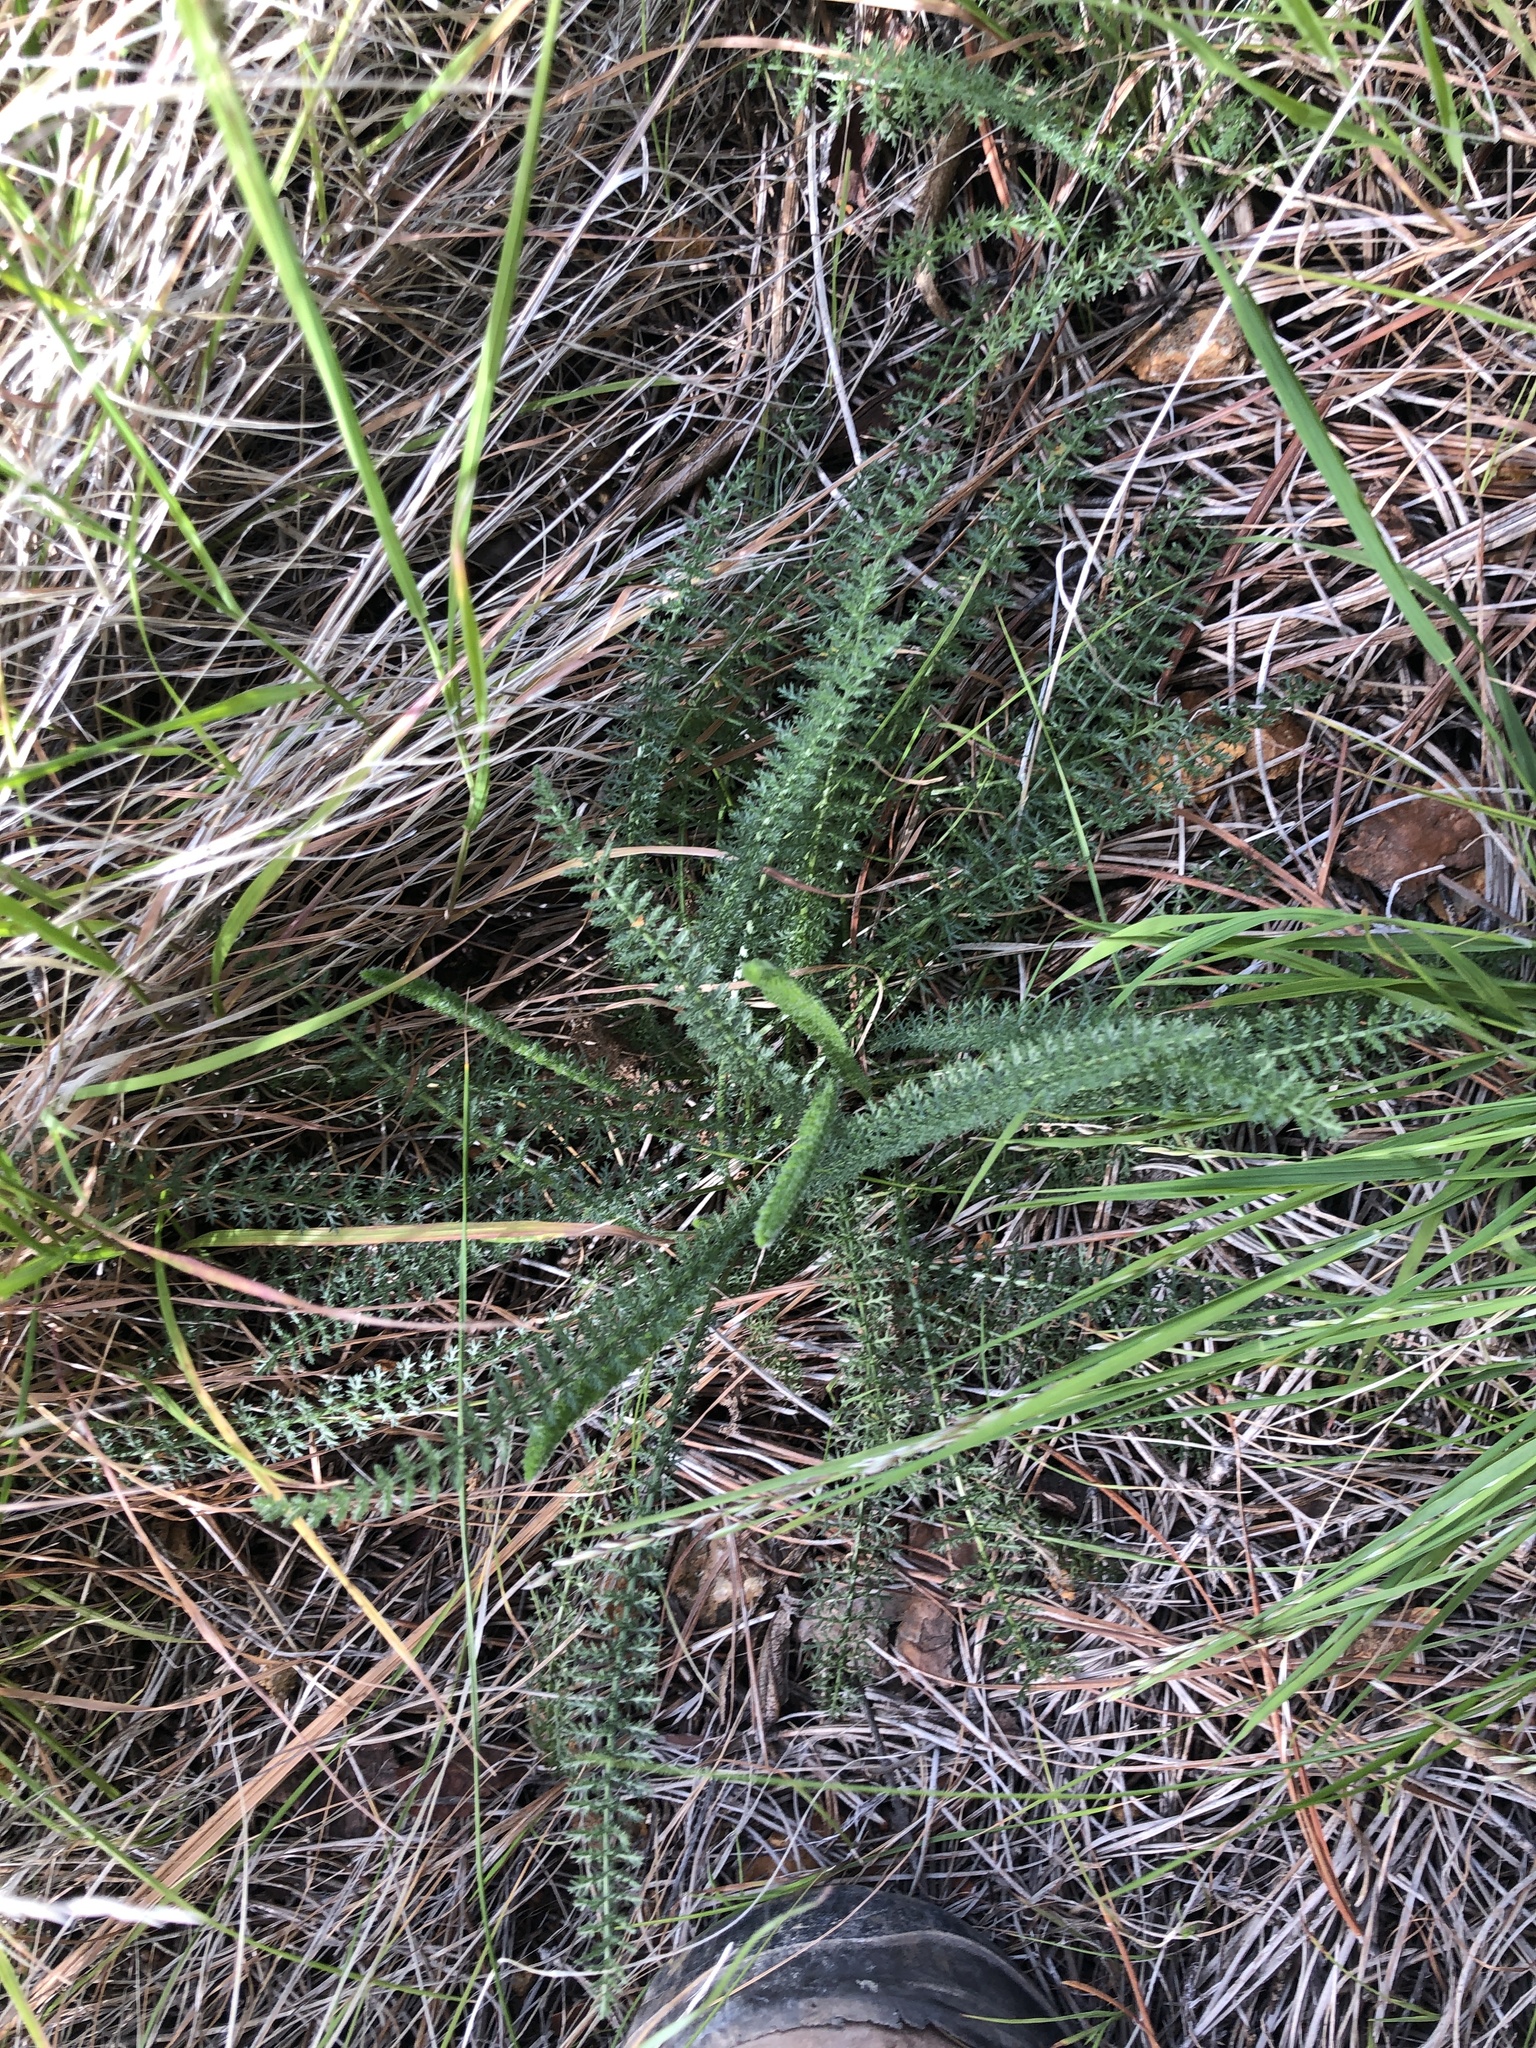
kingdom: Plantae
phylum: Tracheophyta
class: Magnoliopsida
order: Asterales
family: Asteraceae
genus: Achillea
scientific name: Achillea millefolium
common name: Yarrow
